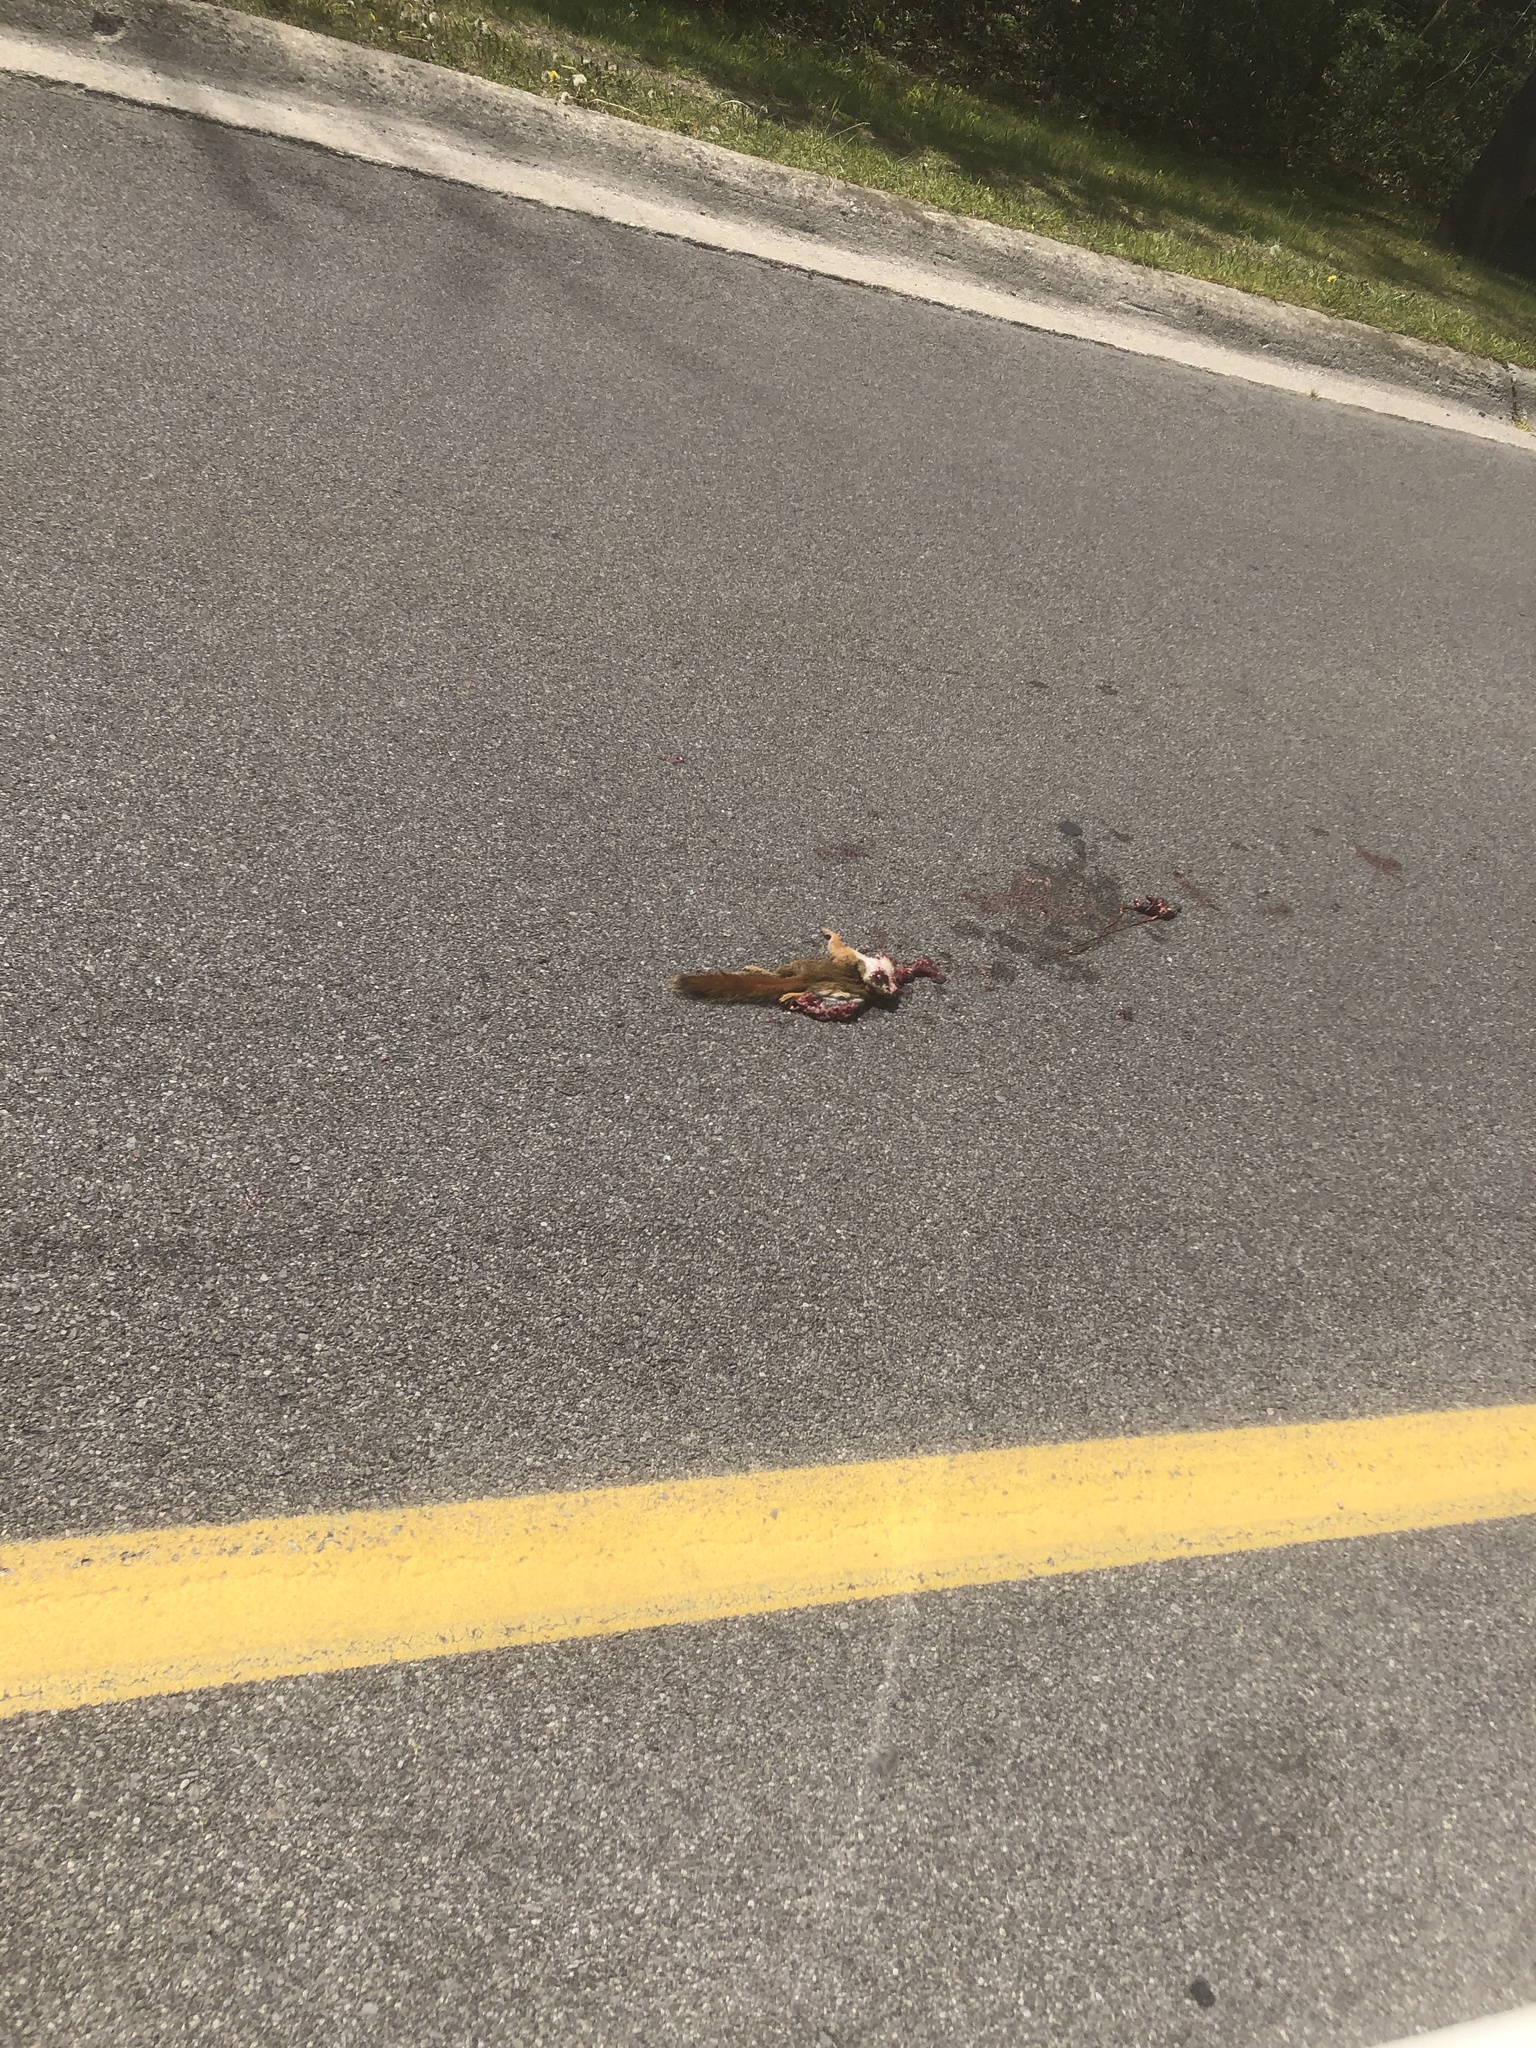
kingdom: Animalia
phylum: Chordata
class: Mammalia
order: Rodentia
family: Sciuridae
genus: Tamiasciurus
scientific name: Tamiasciurus hudsonicus
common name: Red squirrel
